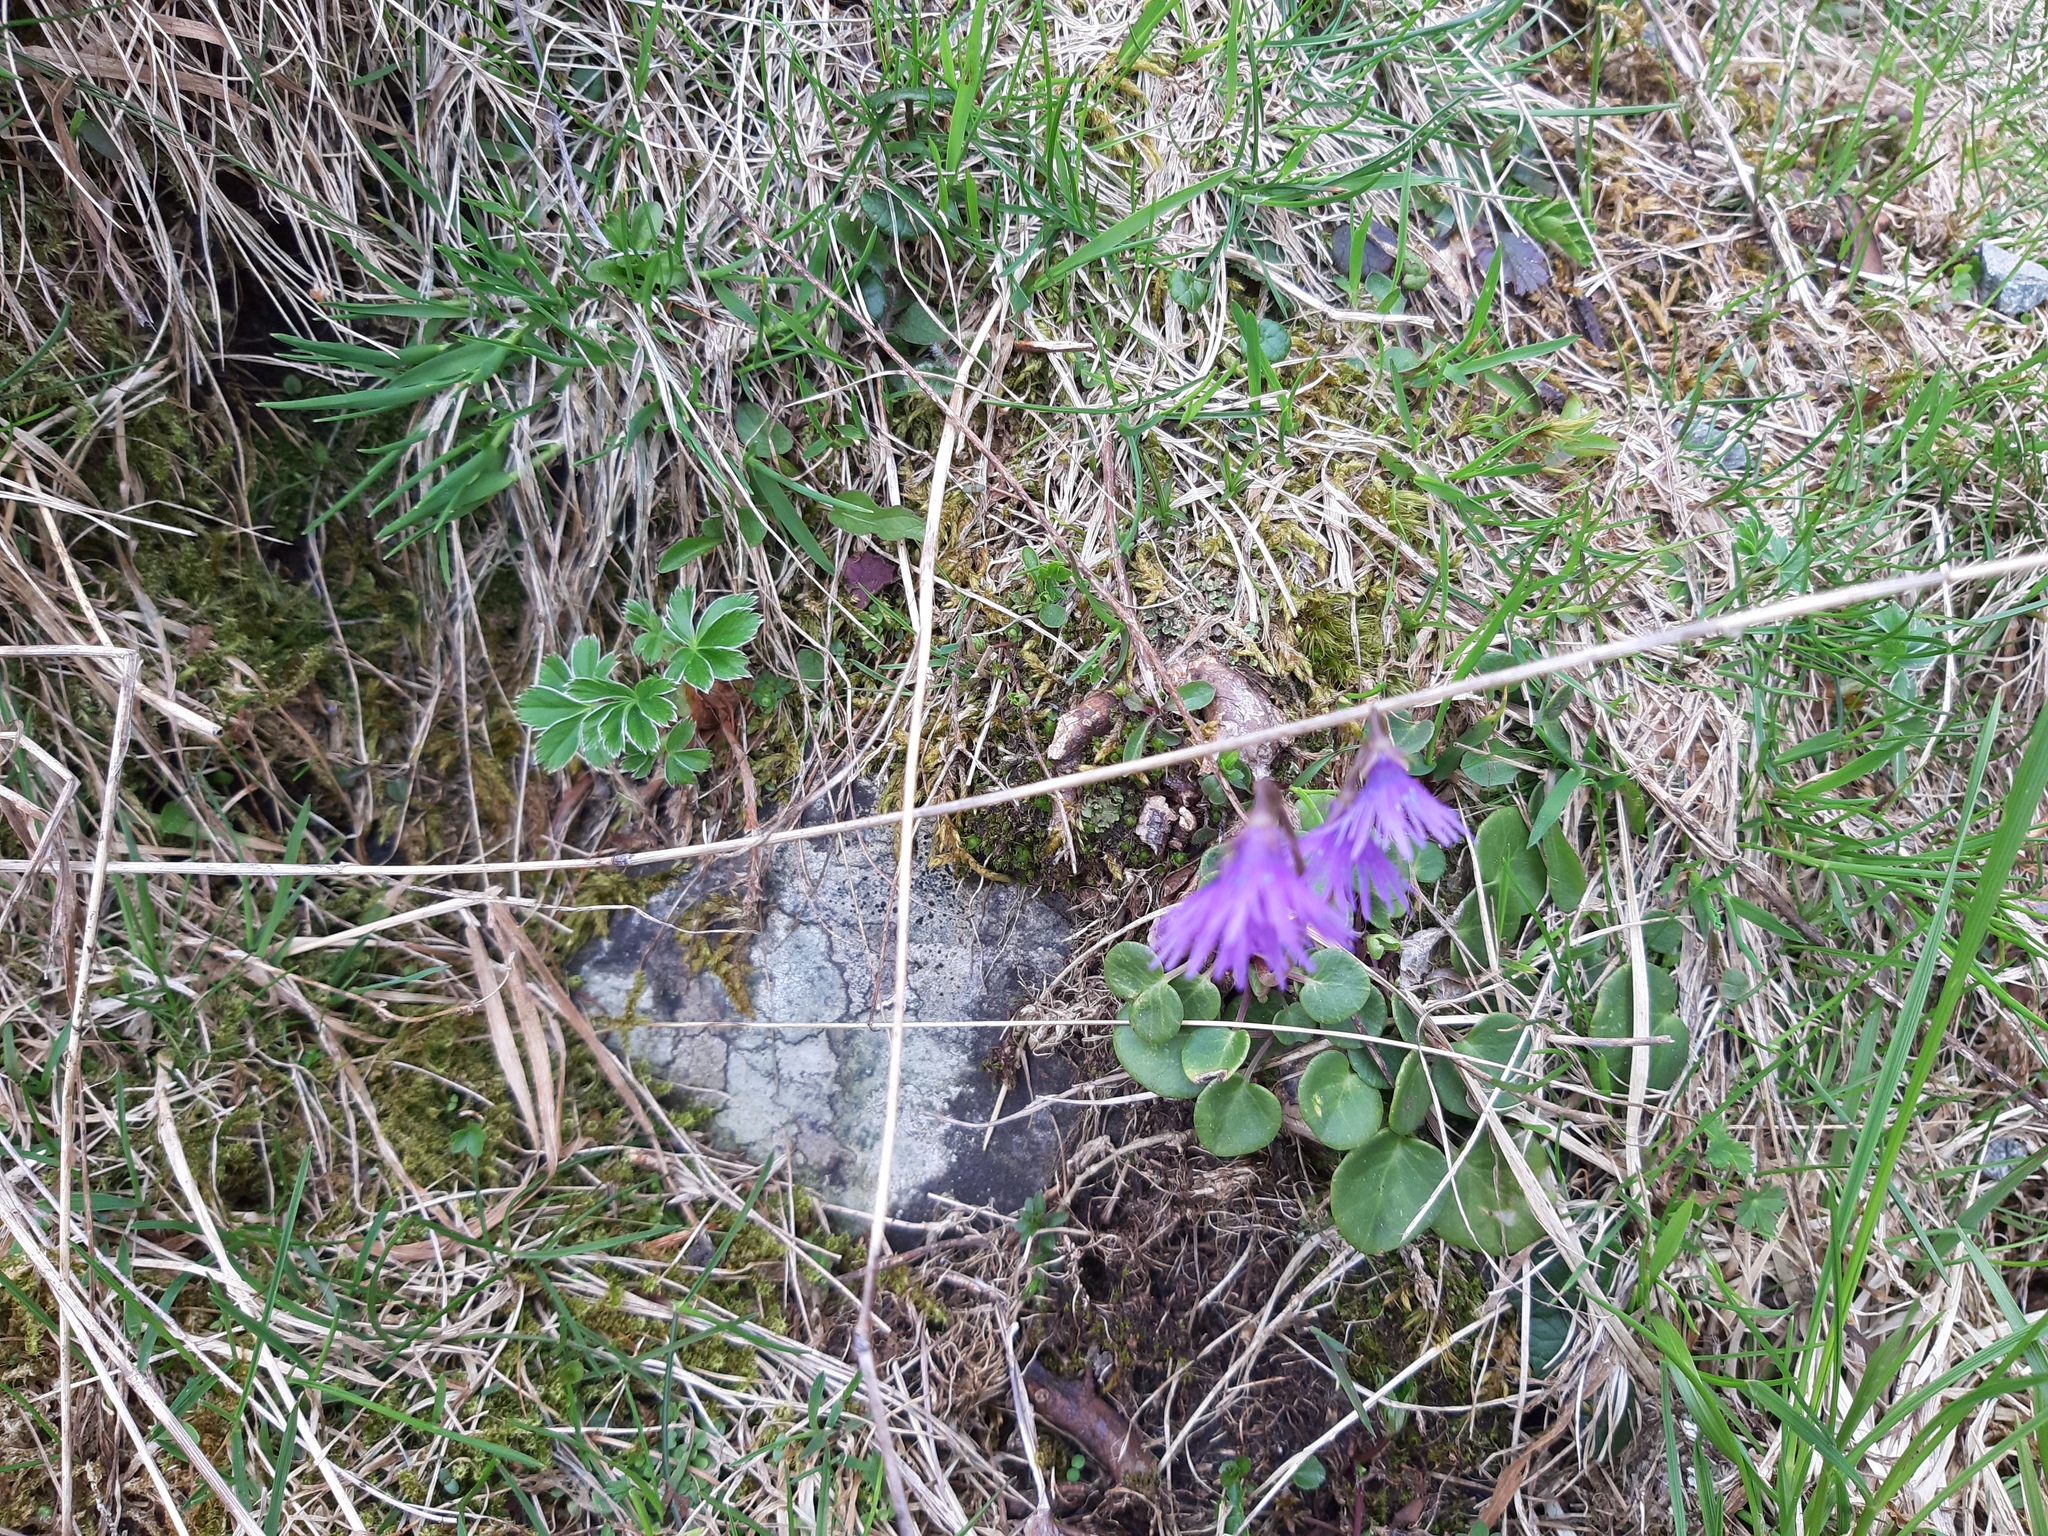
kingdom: Plantae
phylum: Tracheophyta
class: Magnoliopsida
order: Ericales
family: Primulaceae
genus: Soldanella
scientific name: Soldanella alpina
